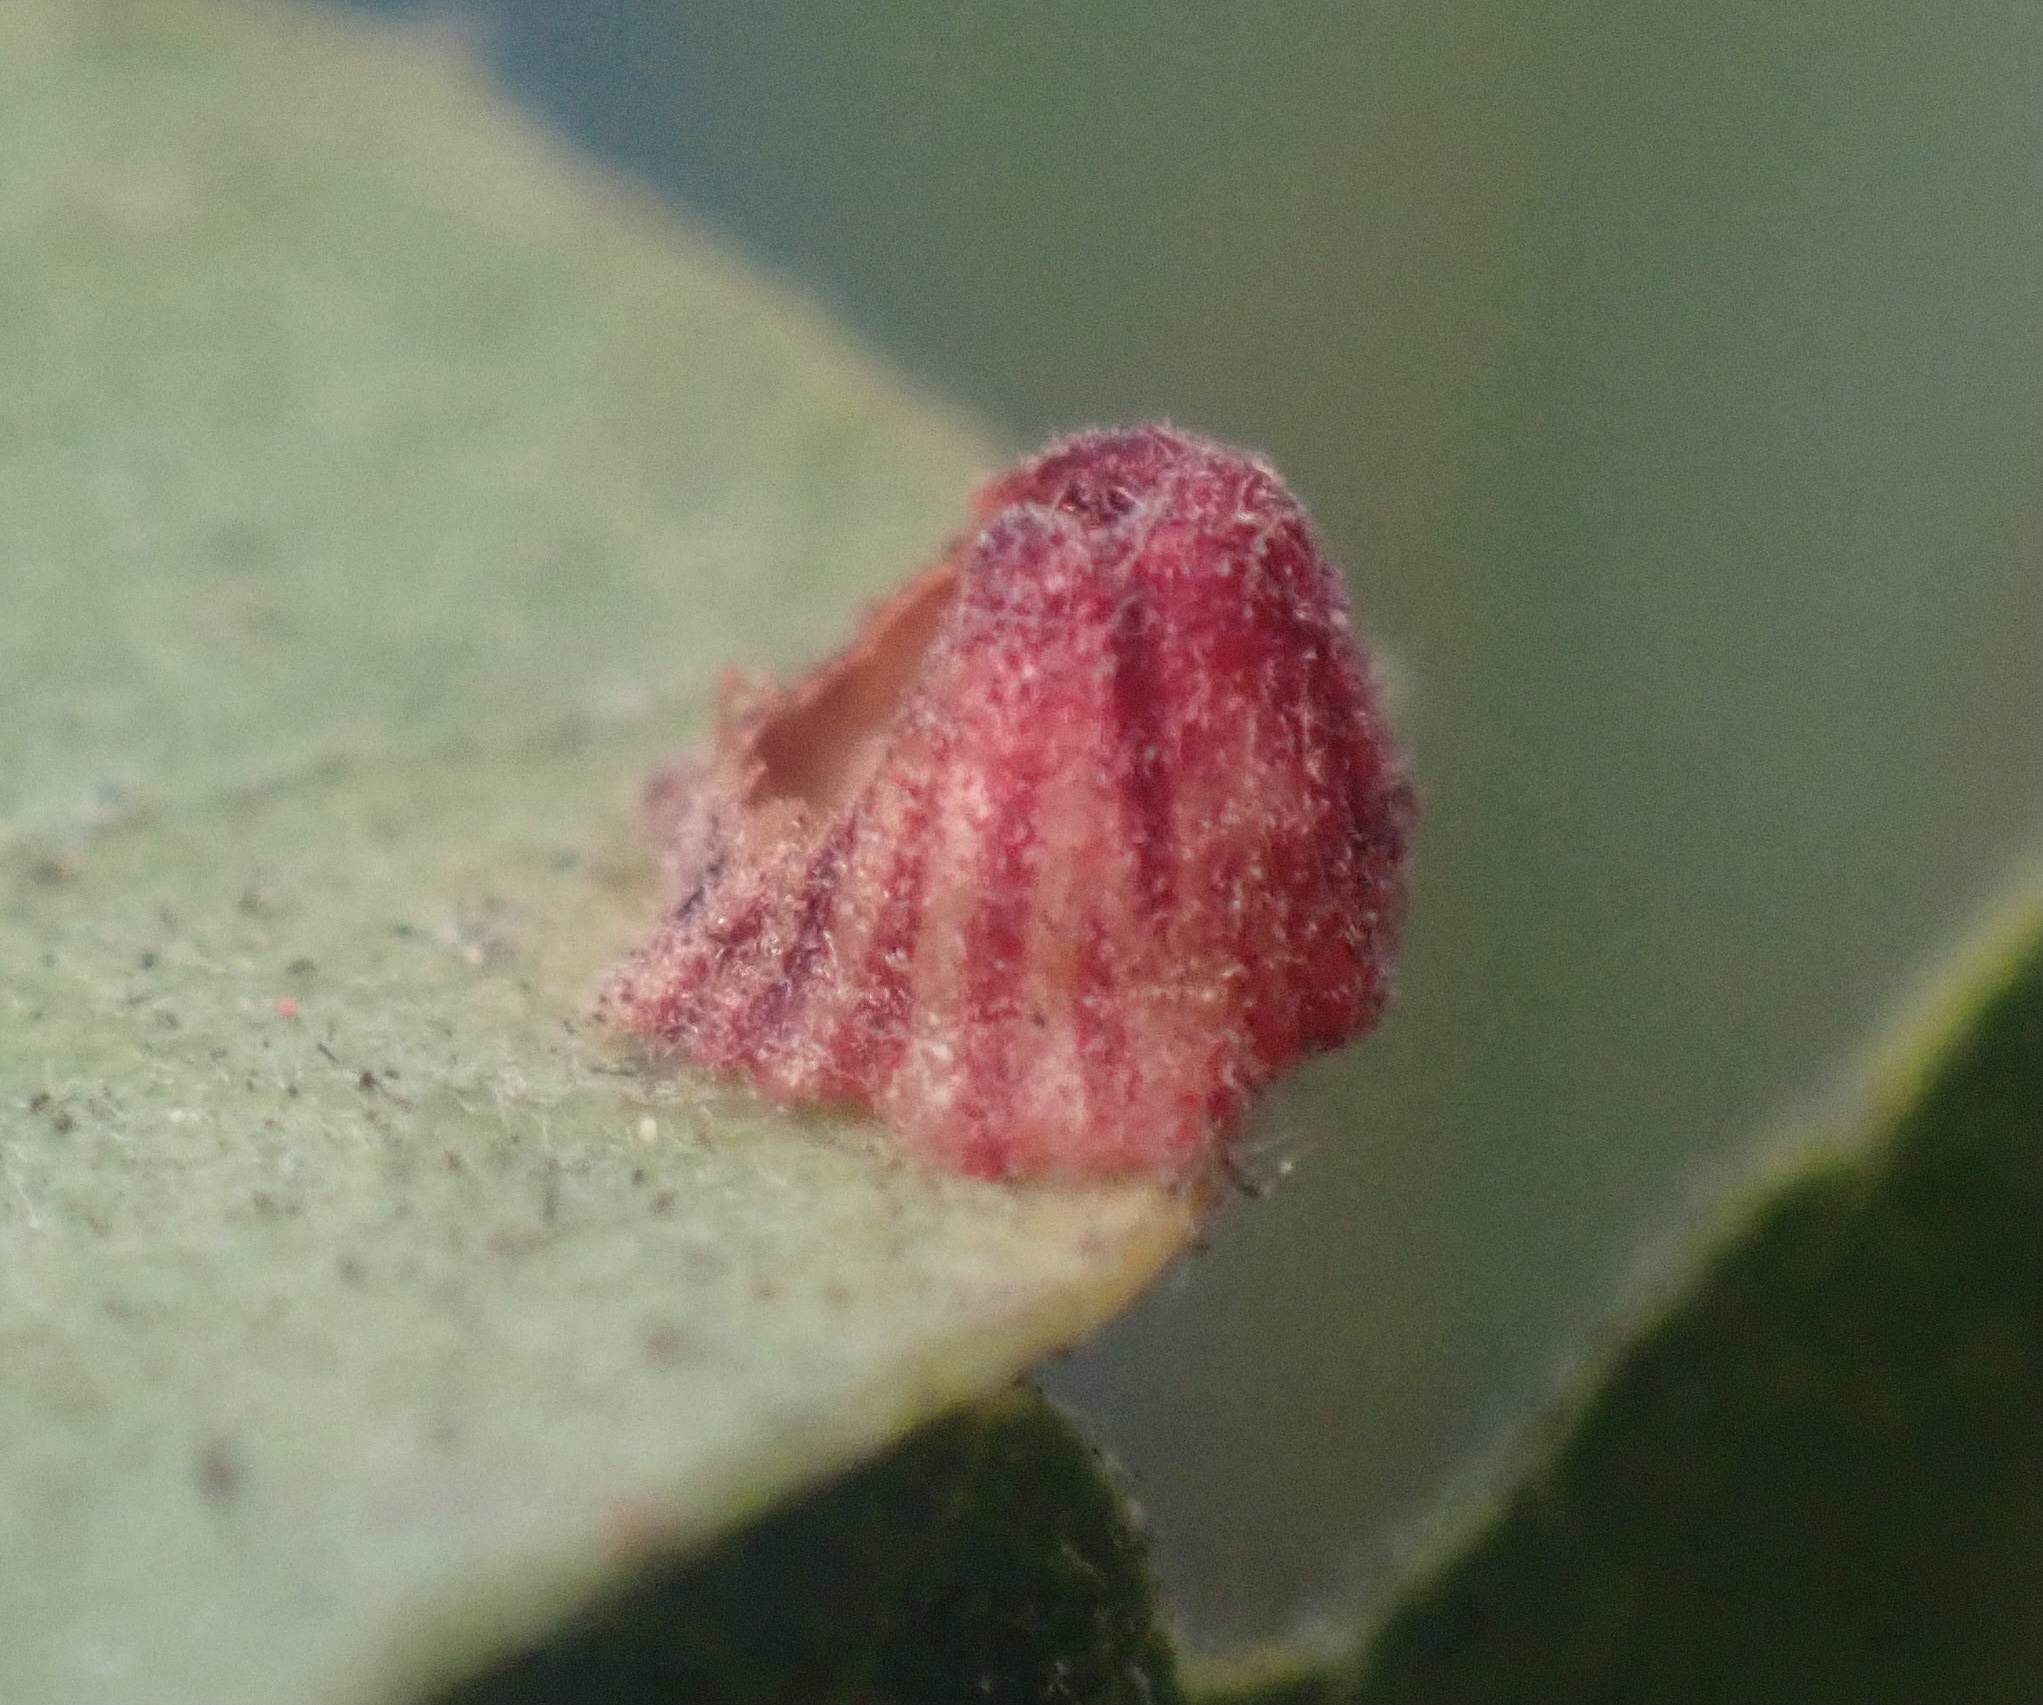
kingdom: Animalia
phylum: Arthropoda
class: Insecta
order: Hymenoptera
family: Cynipidae
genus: Andricus
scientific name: Andricus
